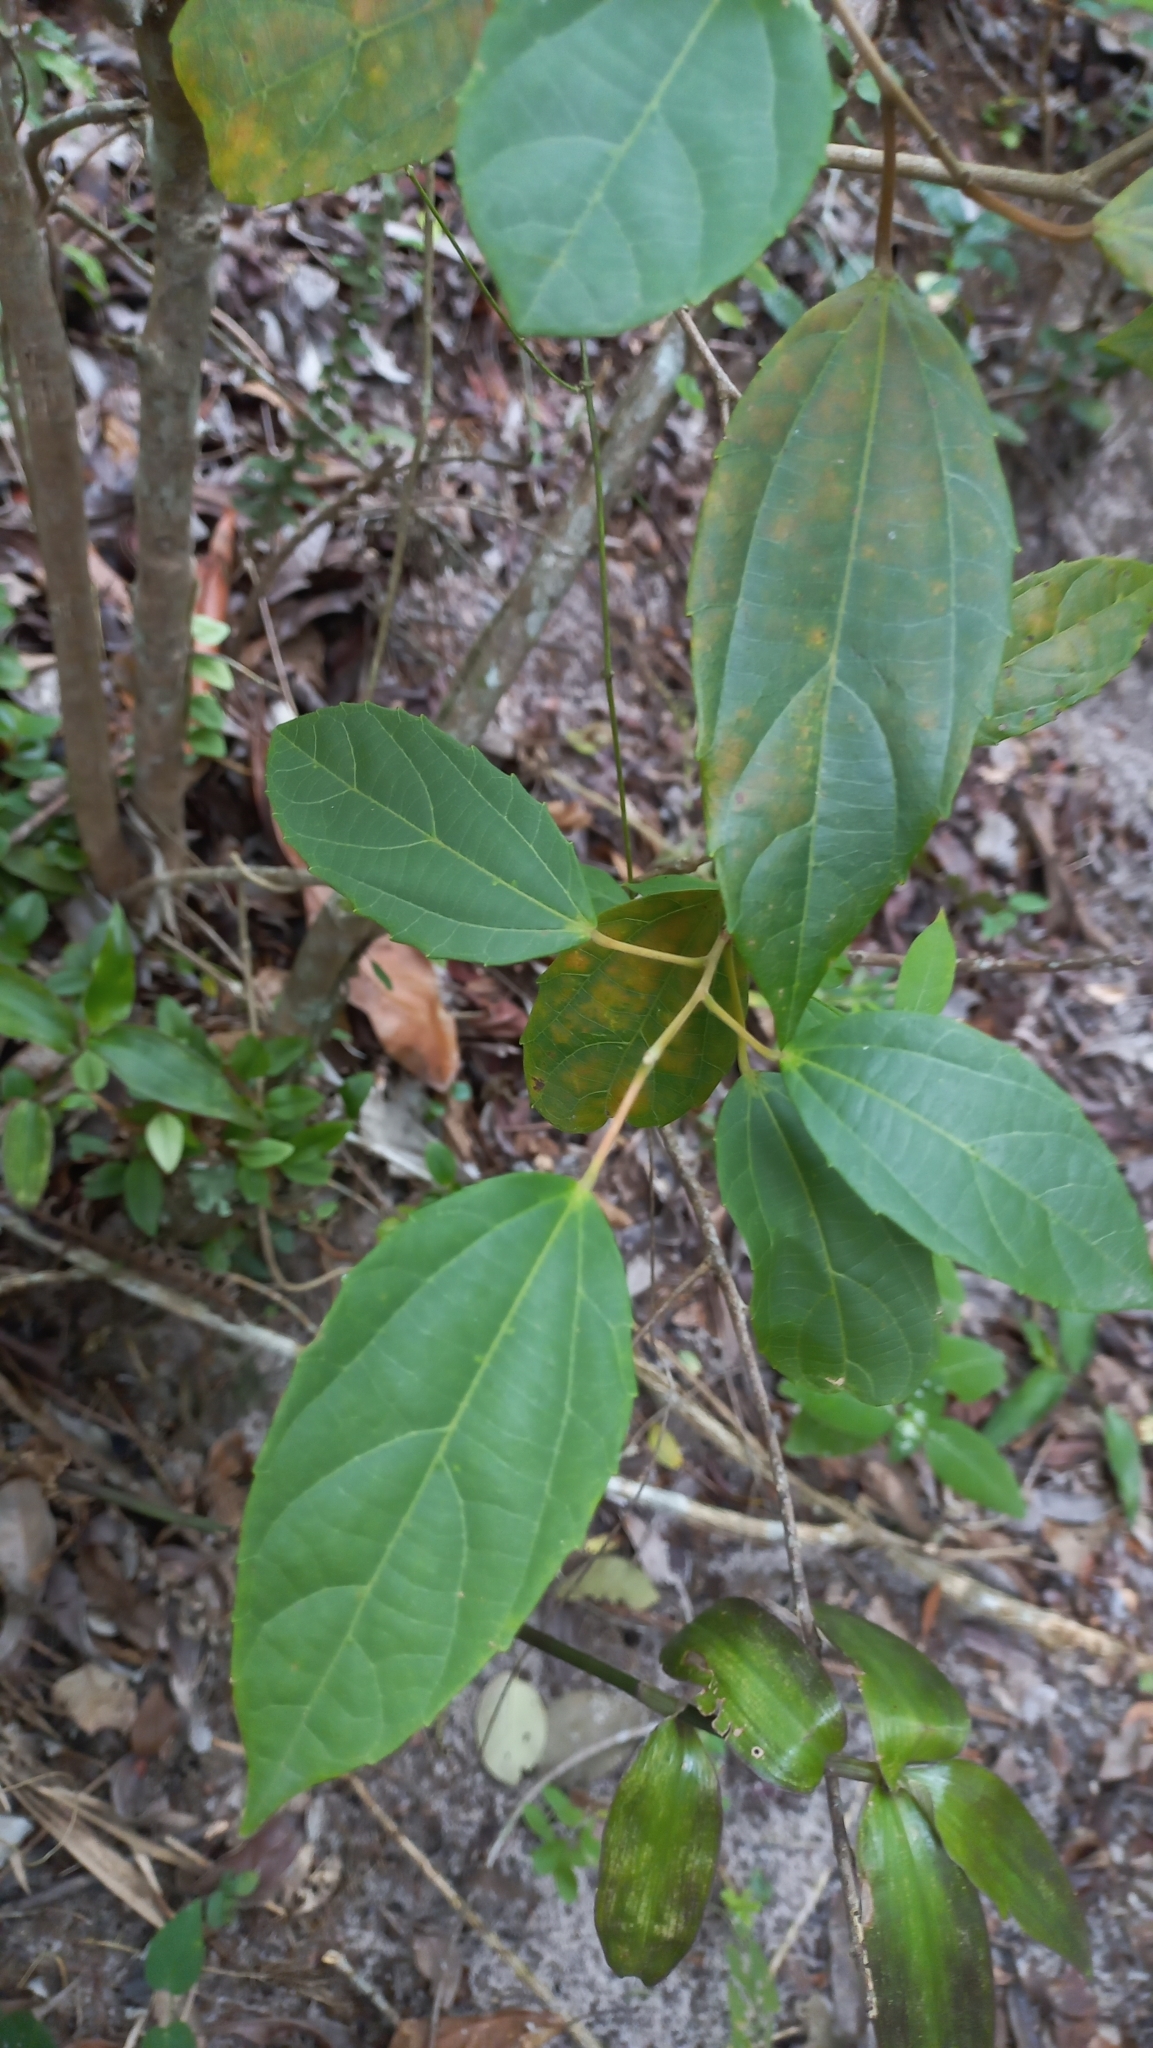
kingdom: Plantae
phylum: Tracheophyta
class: Magnoliopsida
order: Malpighiales
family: Euphorbiaceae
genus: Alchornea
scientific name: Alchornea triplinervia
